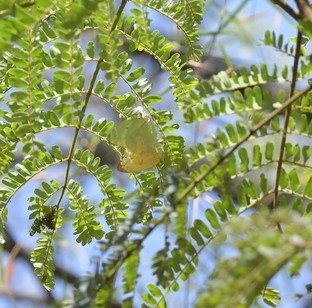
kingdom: Animalia
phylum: Arthropoda
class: Insecta
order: Lepidoptera
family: Pieridae
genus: Catopsilia
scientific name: Catopsilia pomona
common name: Common emigrant
